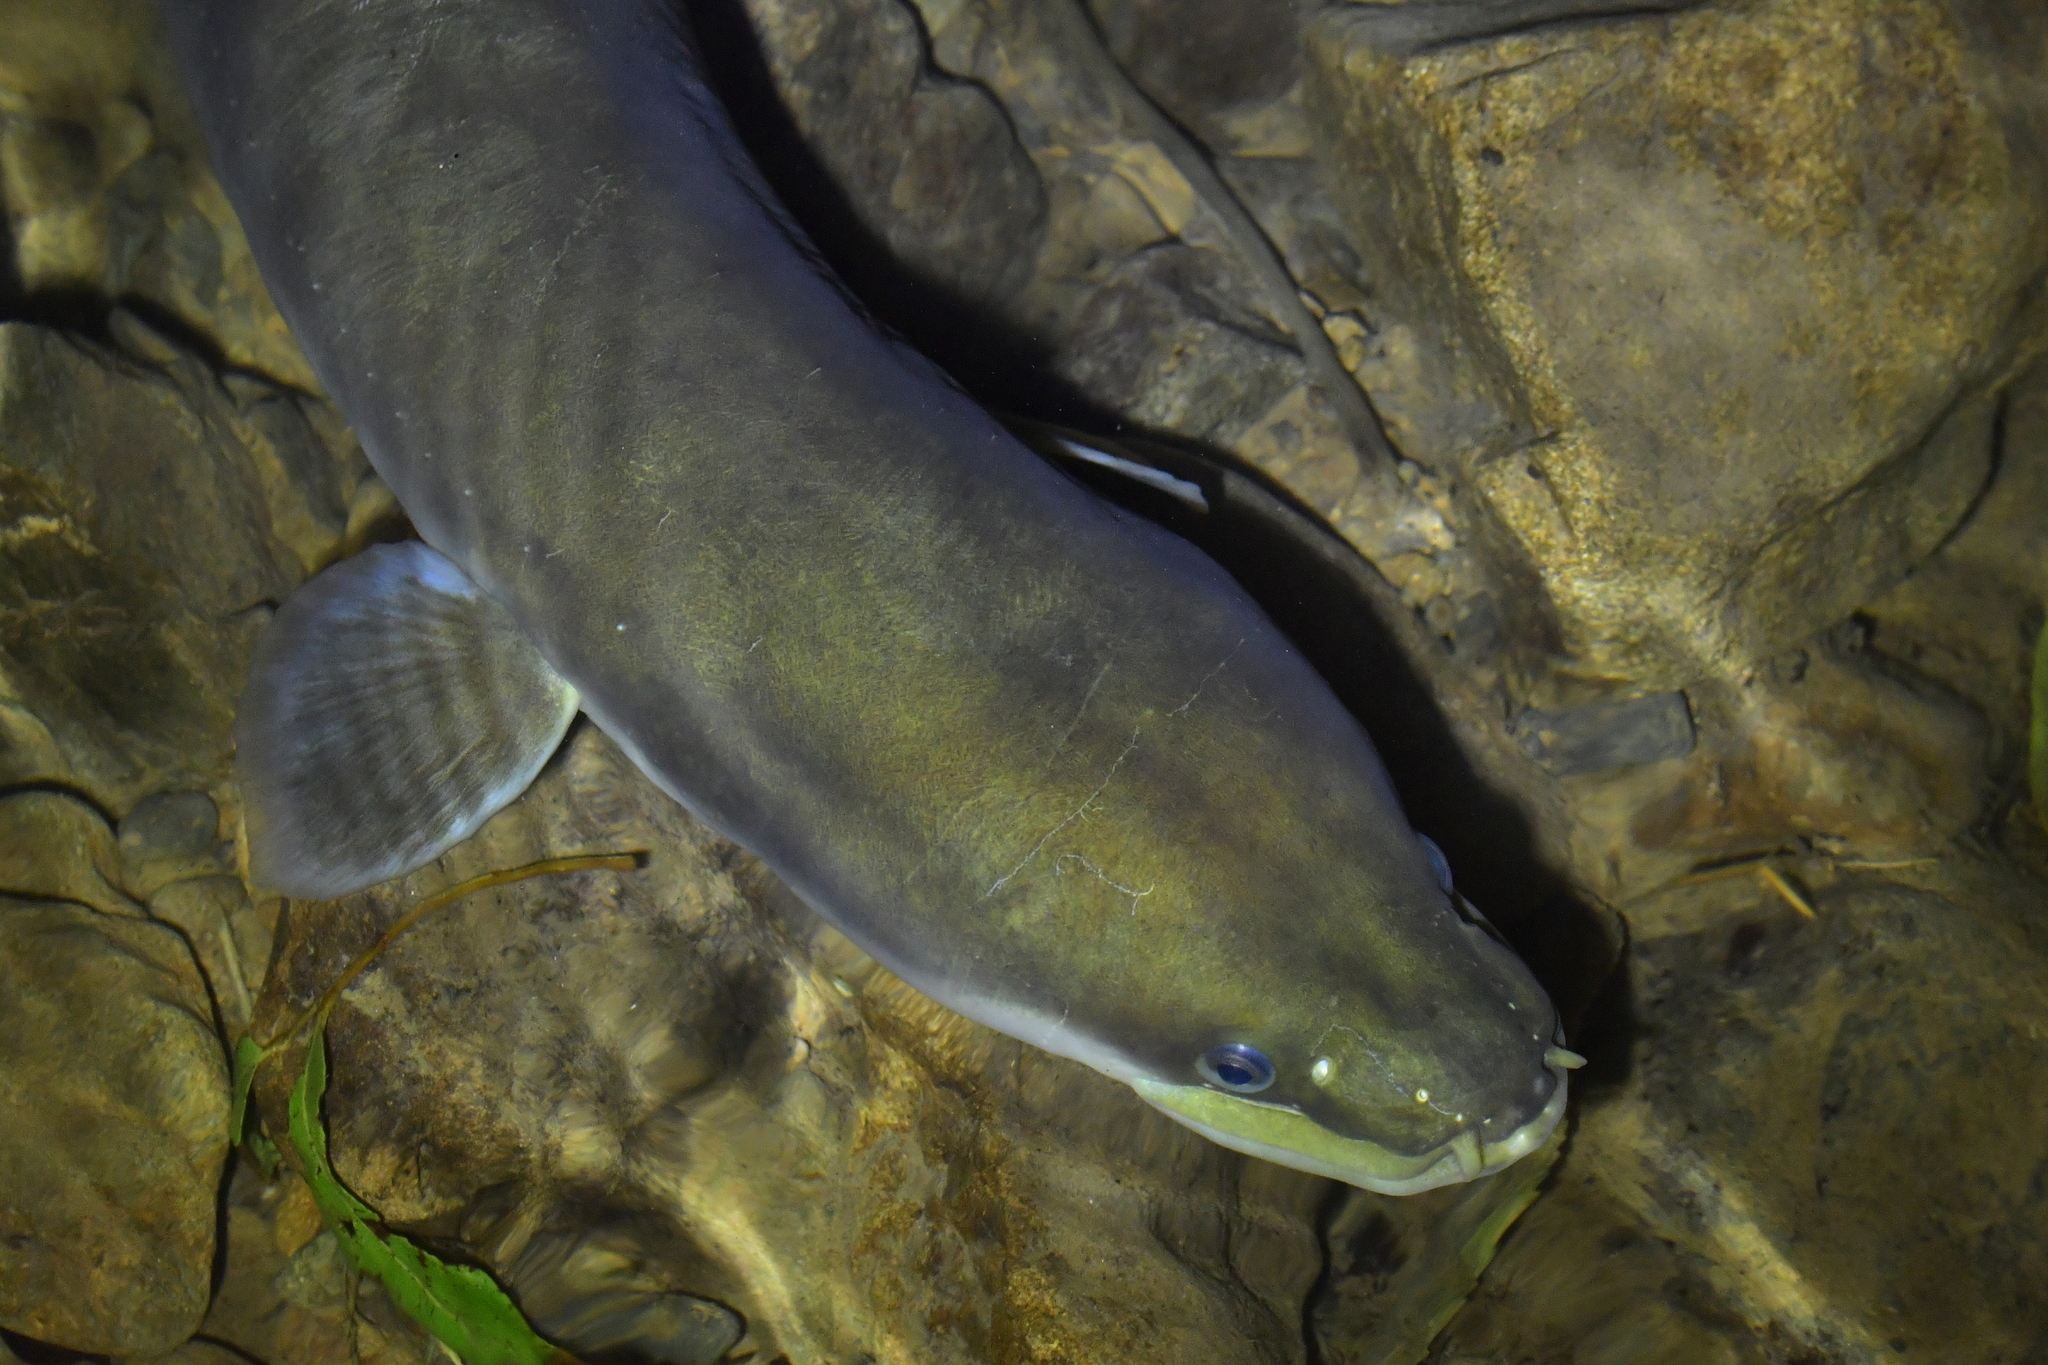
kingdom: Animalia
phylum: Chordata
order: Anguilliformes
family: Anguillidae
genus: Anguilla
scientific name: Anguilla dieffenbachii
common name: New zealand longfin eel
